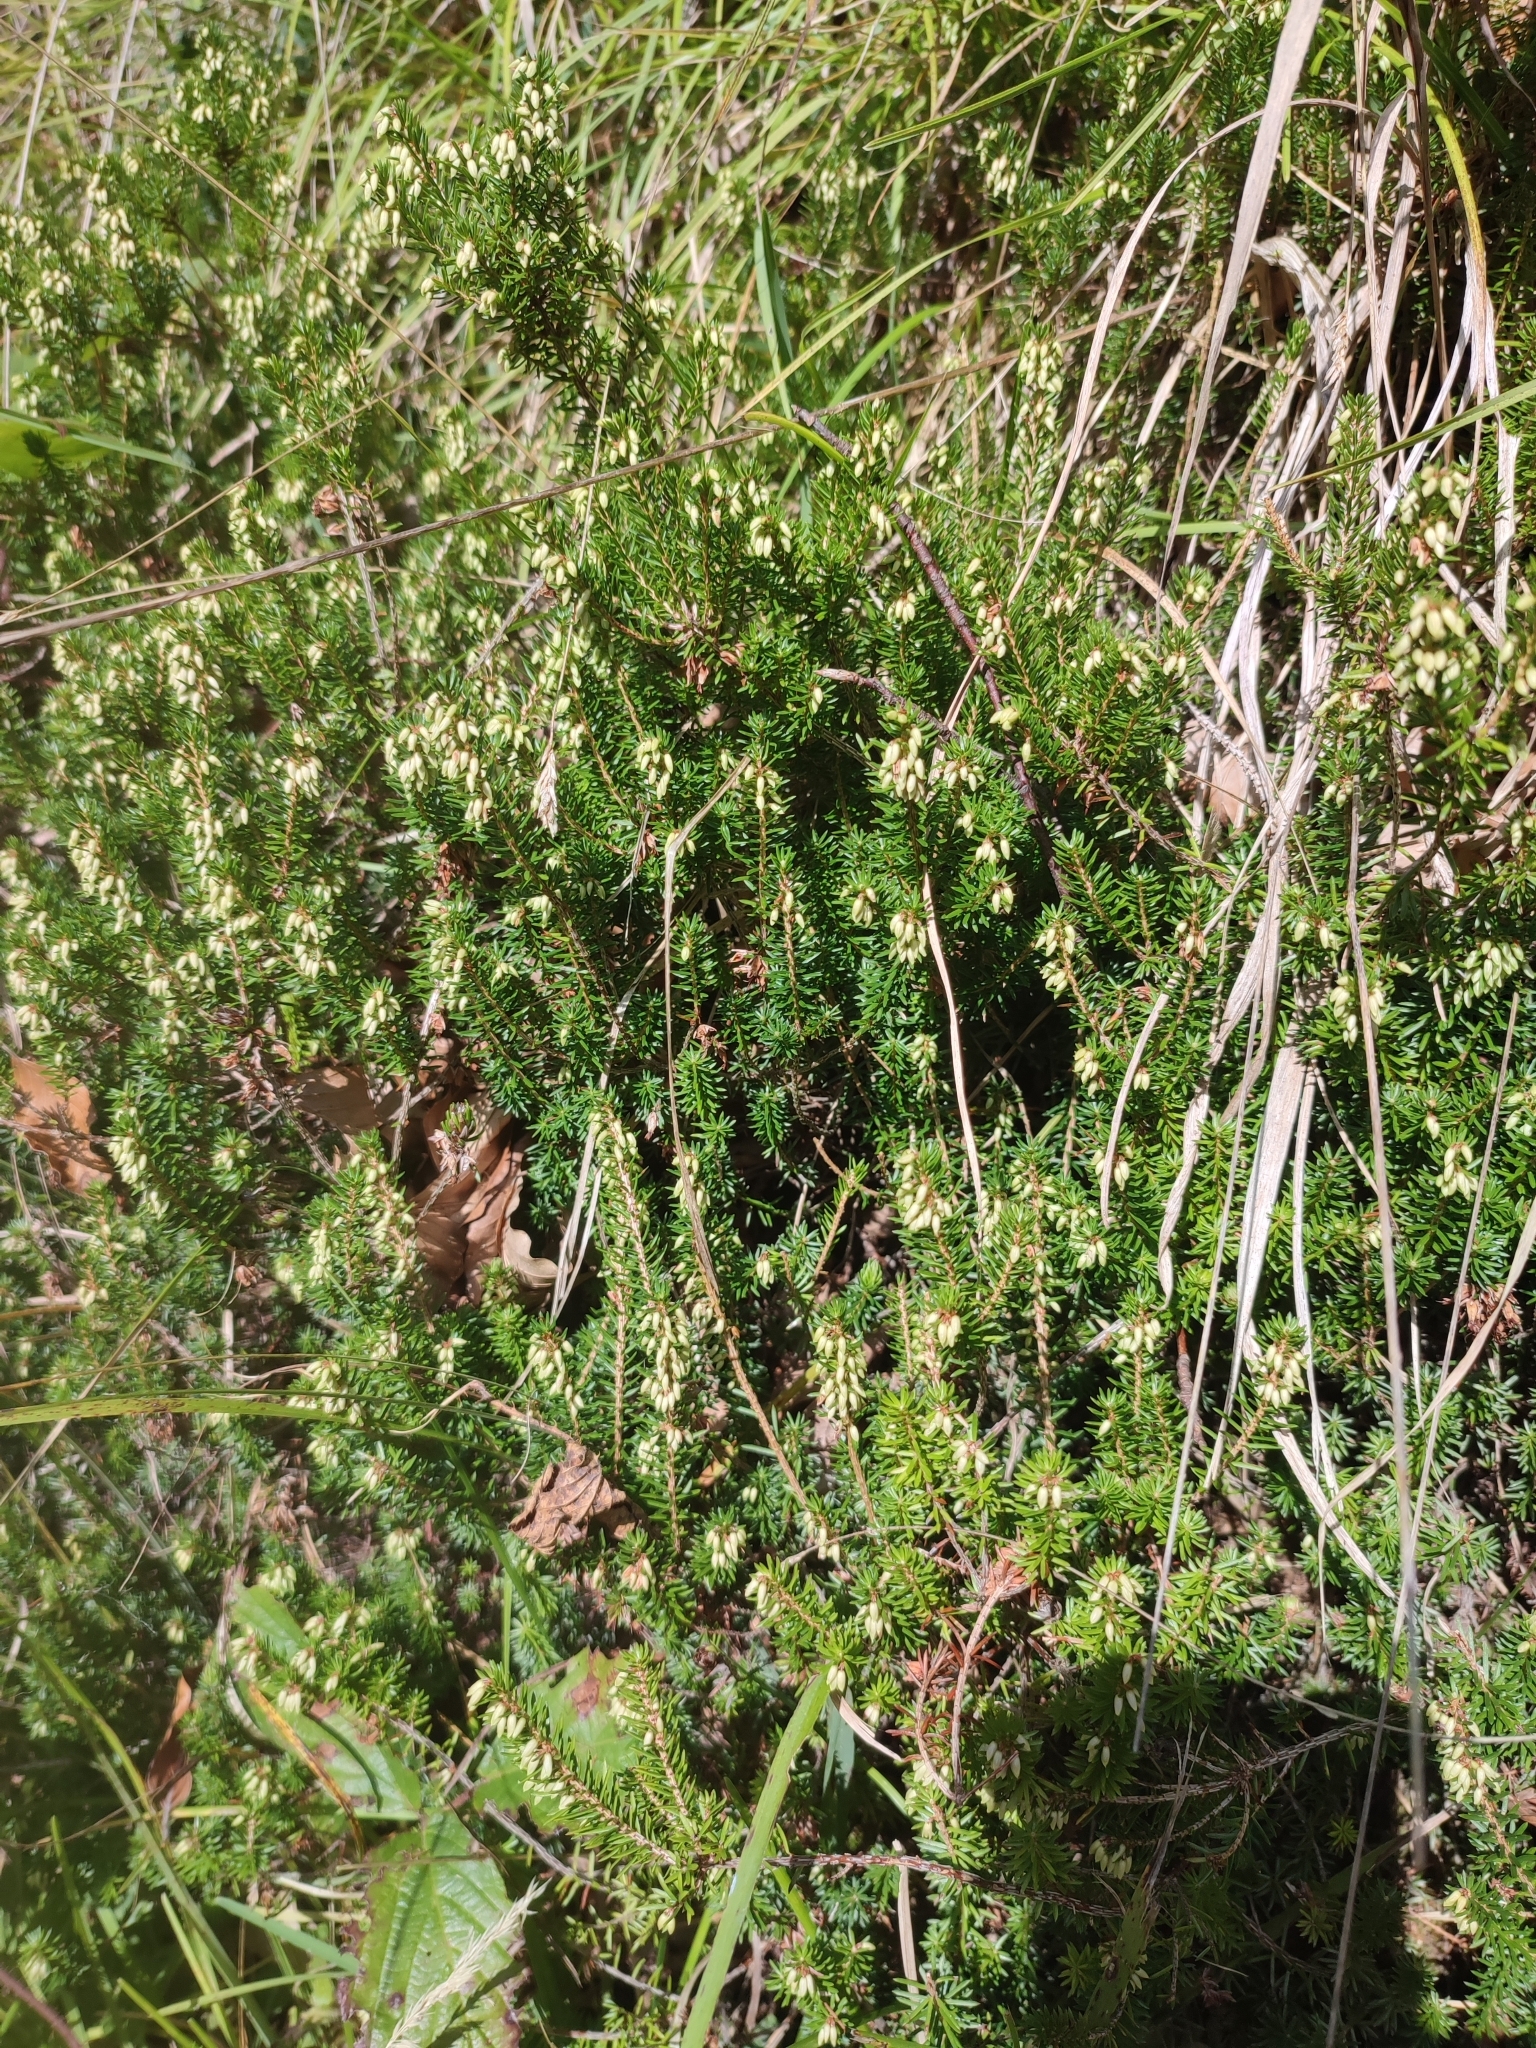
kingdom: Plantae
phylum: Tracheophyta
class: Magnoliopsida
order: Ericales
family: Ericaceae
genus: Erica
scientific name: Erica carnea
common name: Winter heath
